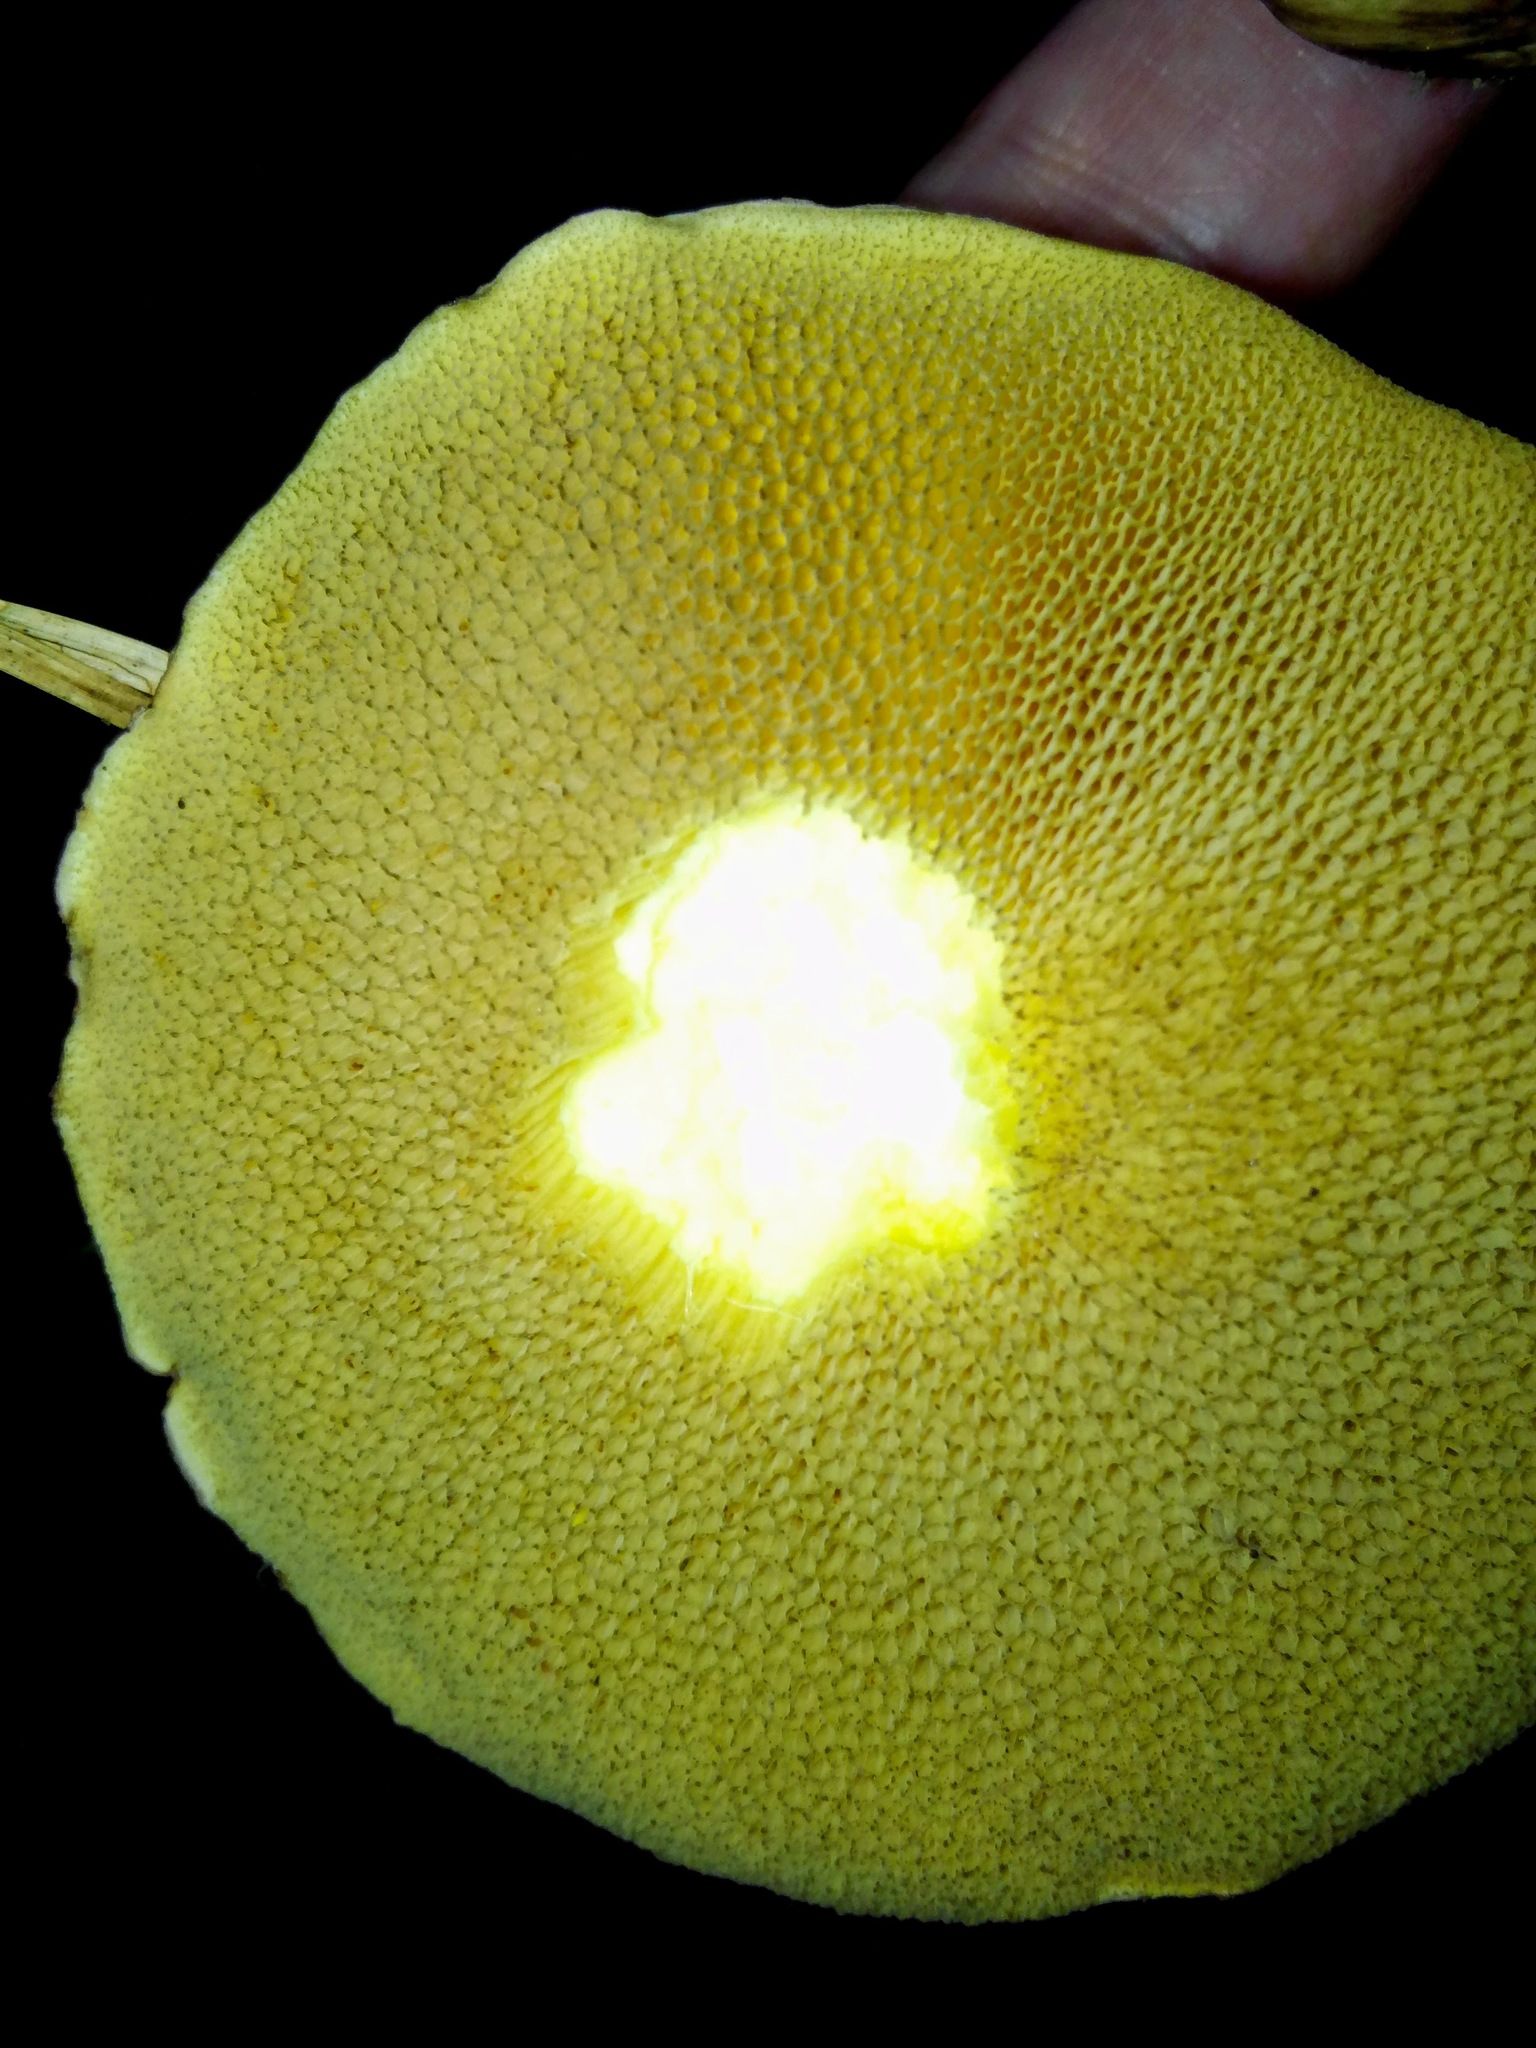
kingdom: Fungi
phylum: Basidiomycota
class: Agaricomycetes
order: Boletales
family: Suillaceae
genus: Suillus
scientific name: Suillus placidus
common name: Slippery white bolete
